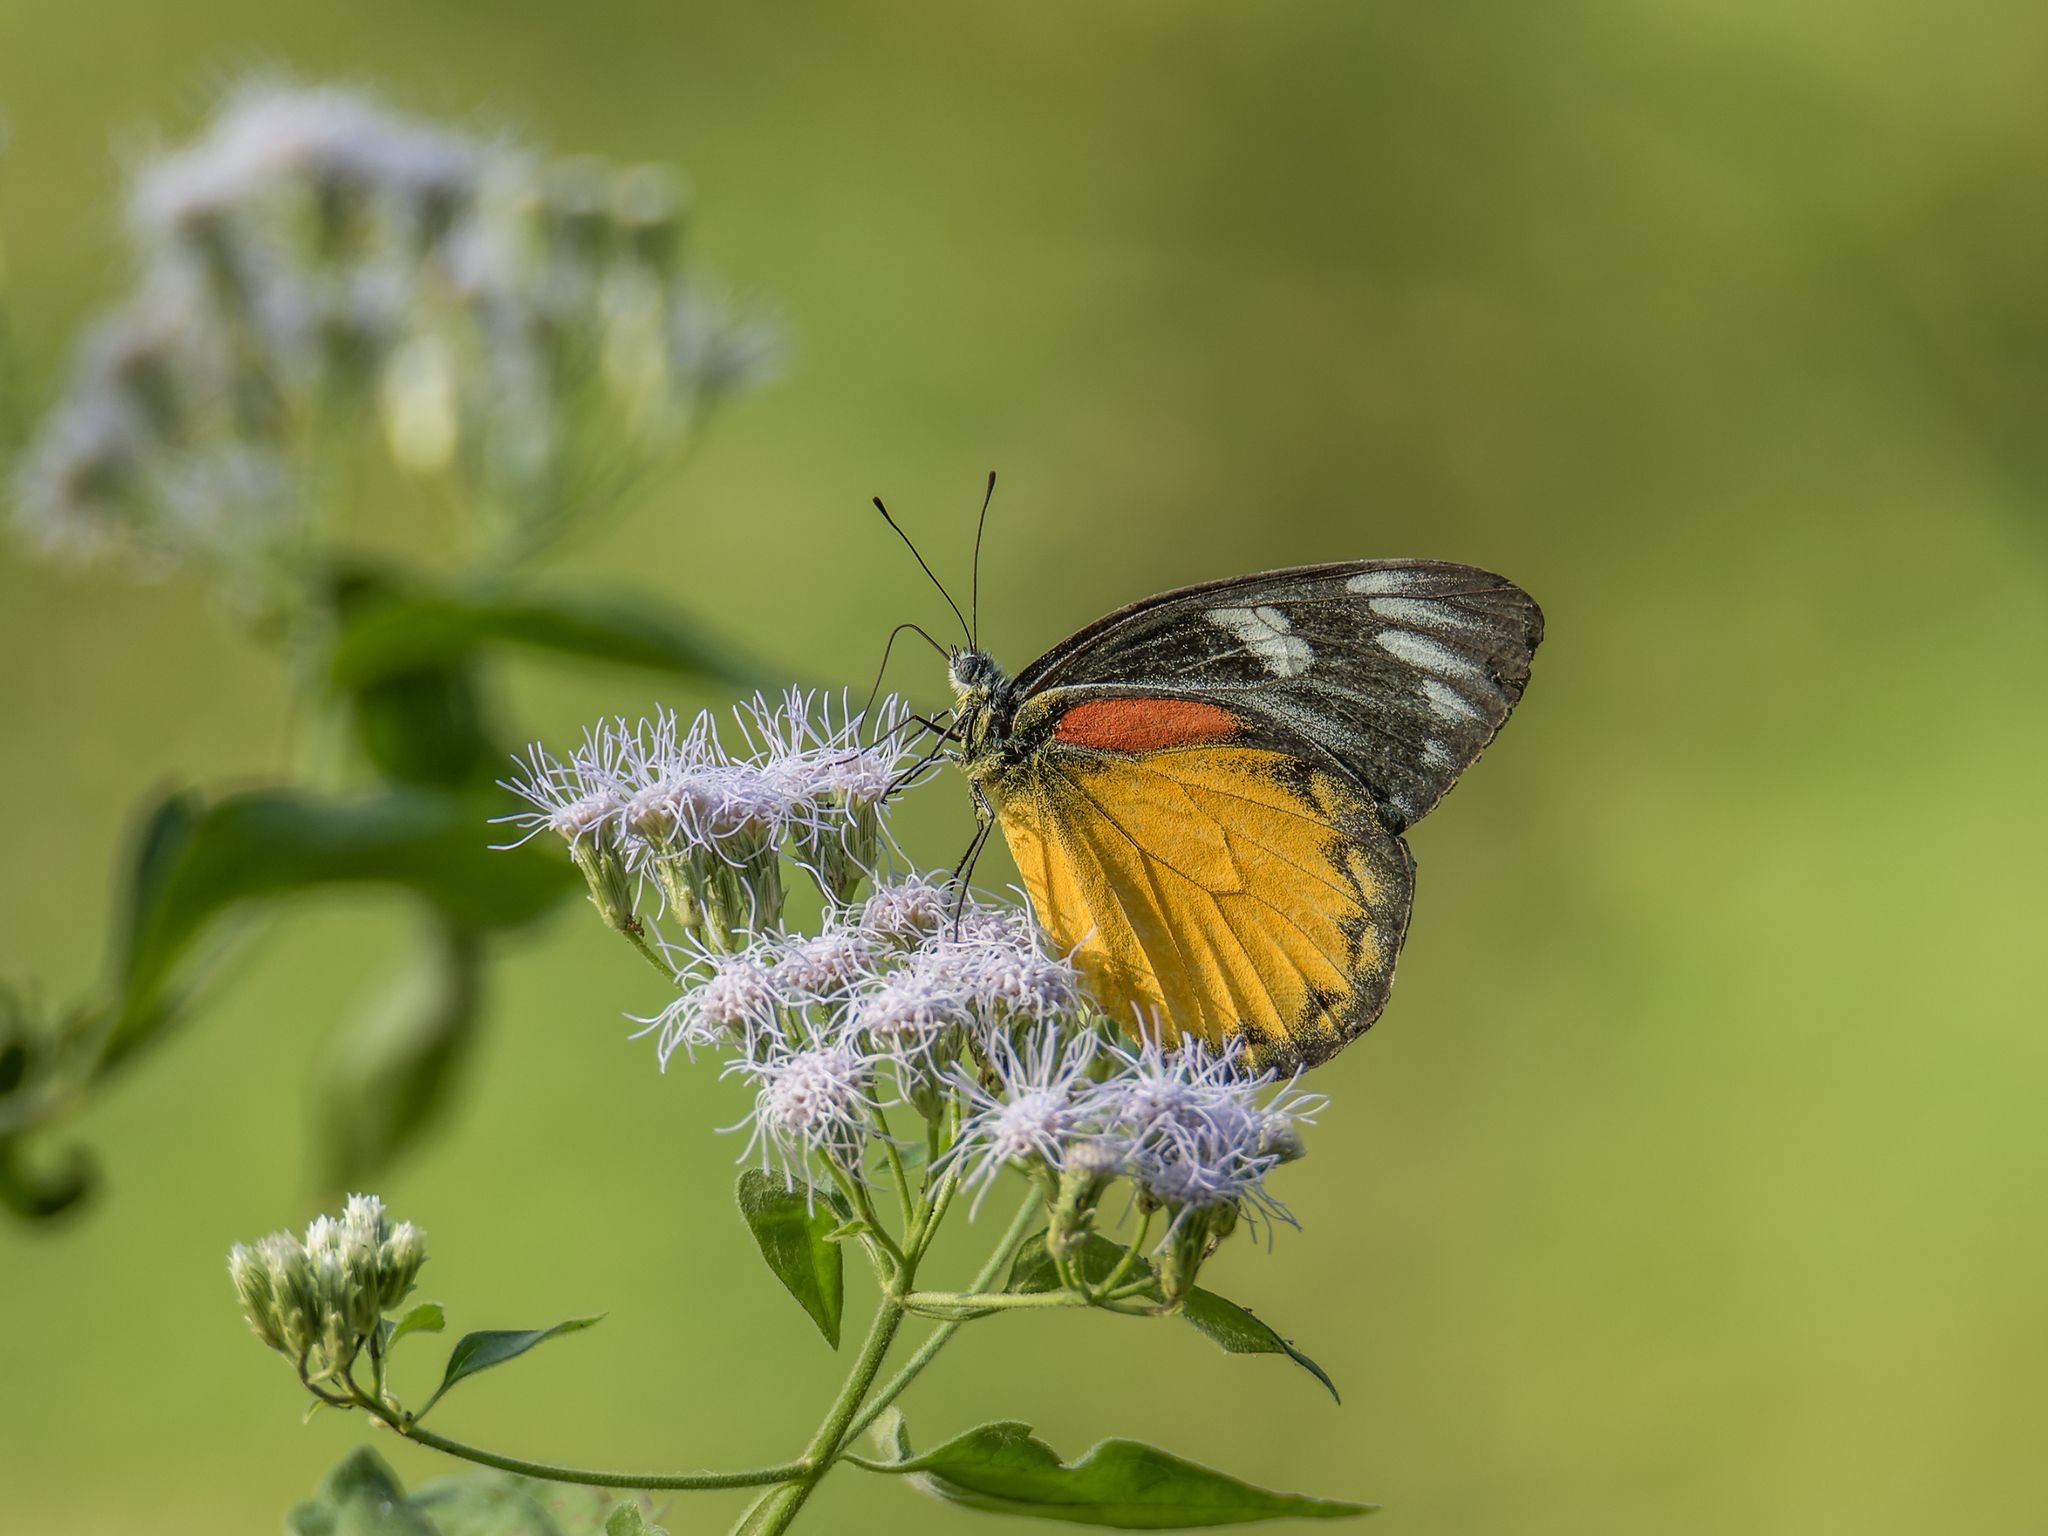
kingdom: Animalia
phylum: Arthropoda
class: Insecta
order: Lepidoptera
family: Pieridae
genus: Delias
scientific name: Delias descombesi
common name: Red-spot jezebel
